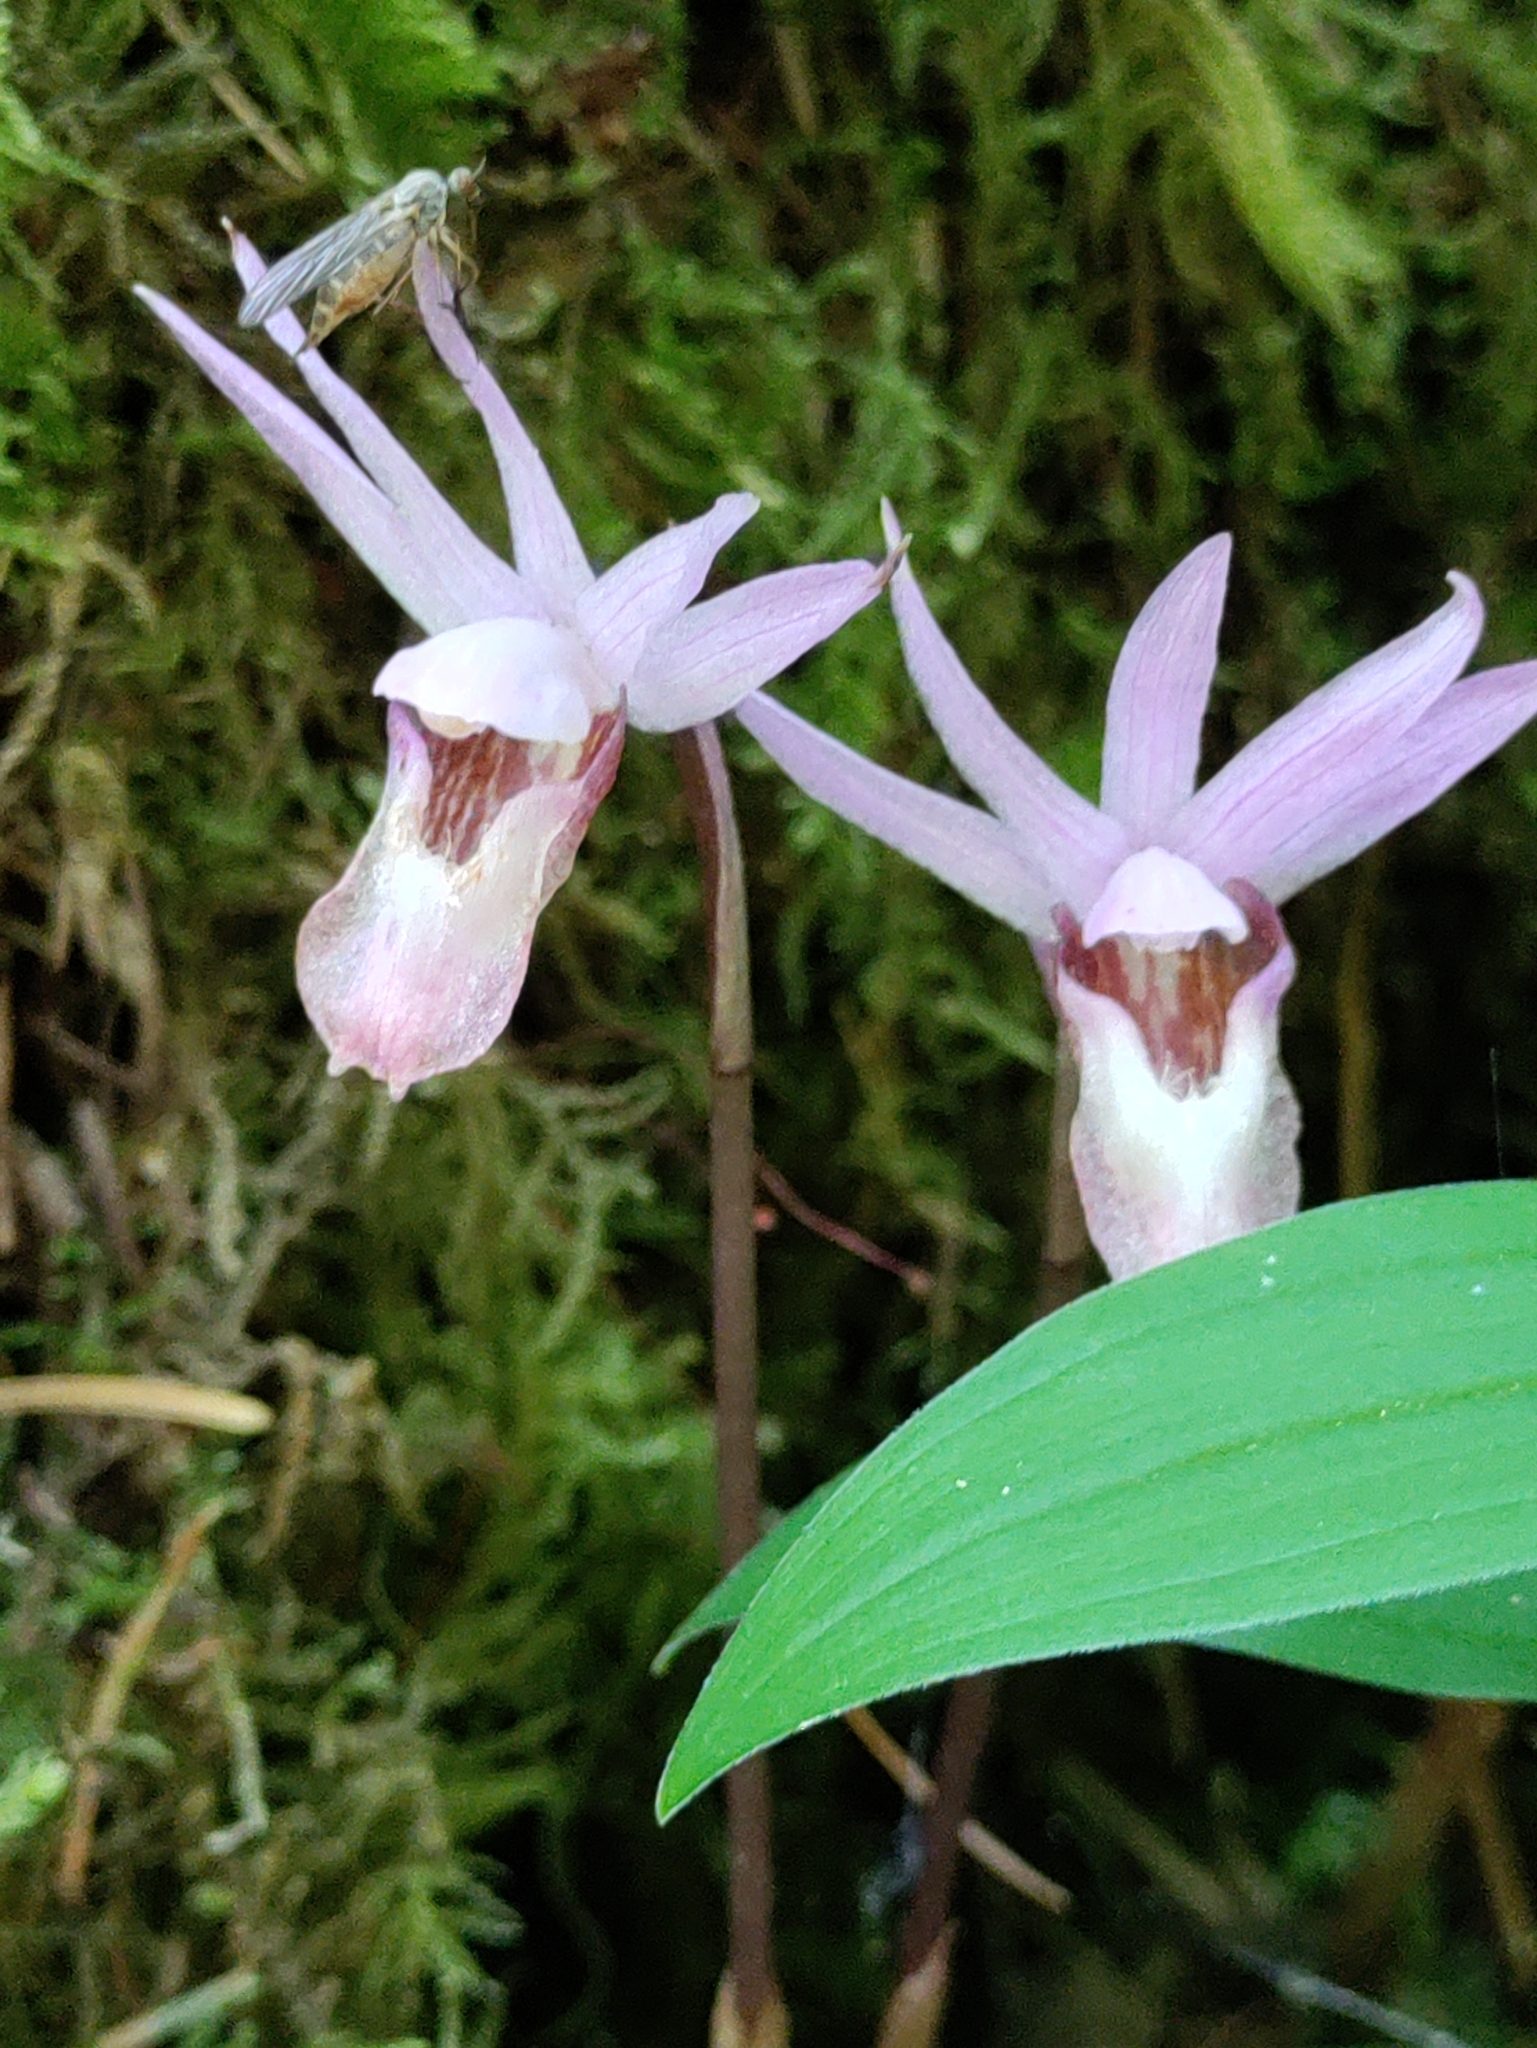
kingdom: Plantae
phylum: Tracheophyta
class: Liliopsida
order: Asparagales
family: Orchidaceae
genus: Calypso
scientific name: Calypso bulbosa
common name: Calypso
